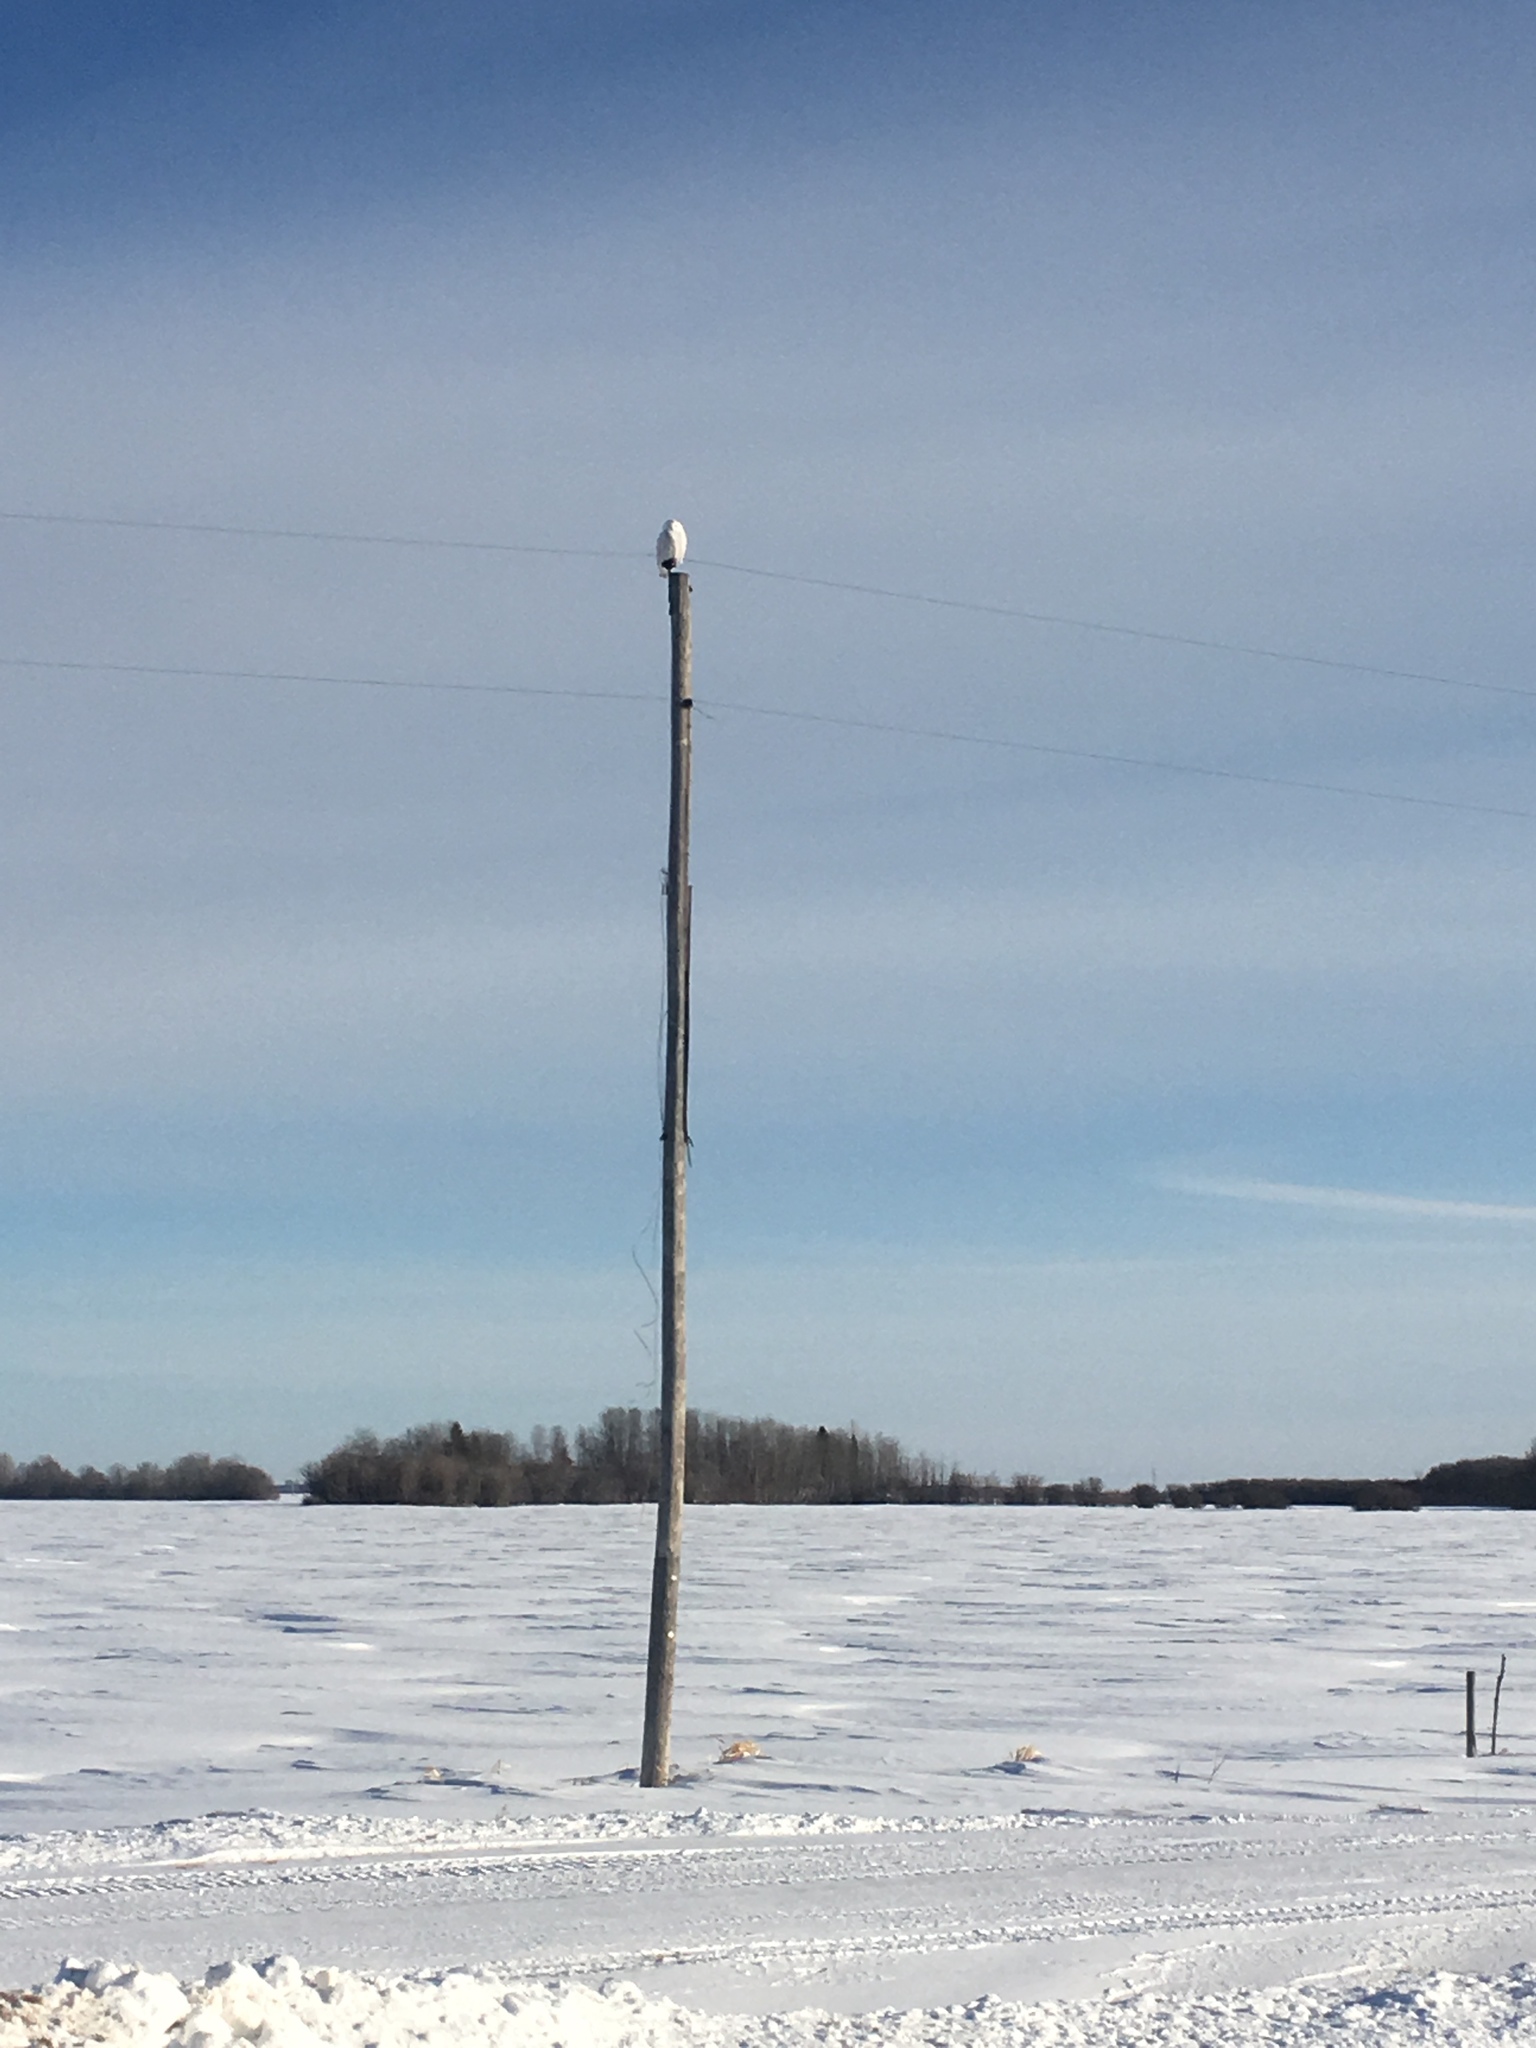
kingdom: Animalia
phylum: Chordata
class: Aves
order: Strigiformes
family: Strigidae
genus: Bubo
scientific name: Bubo scandiacus
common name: Snowy owl
